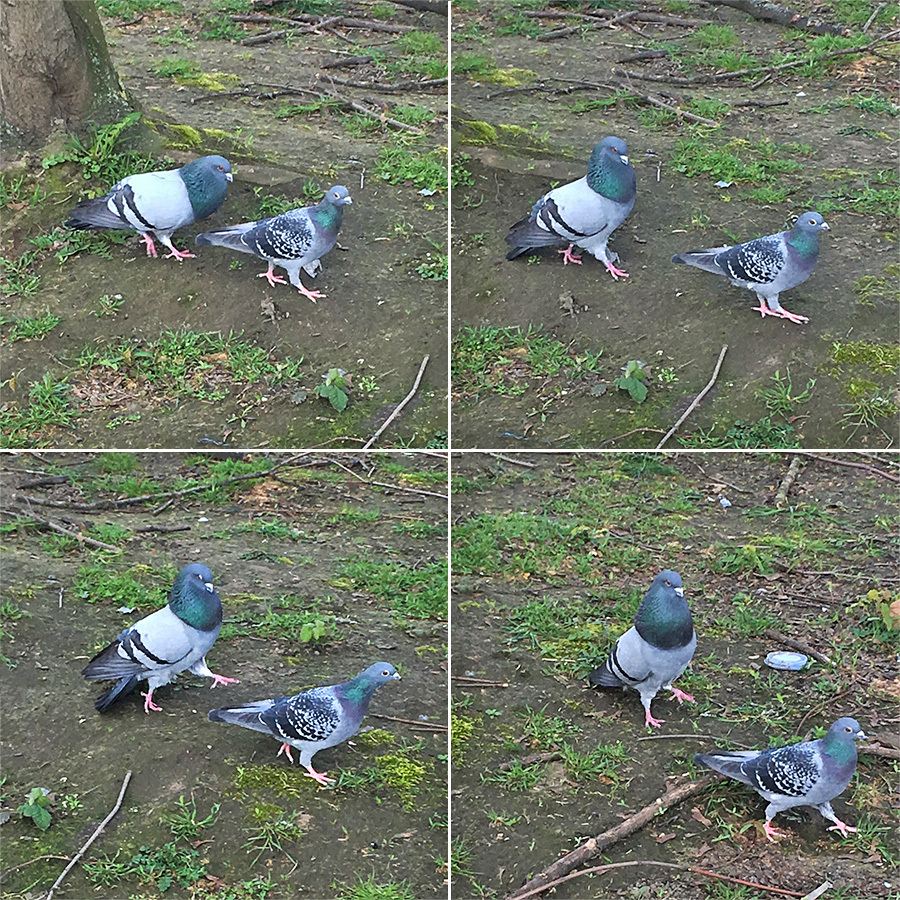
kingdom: Animalia
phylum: Chordata
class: Aves
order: Columbiformes
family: Columbidae
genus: Columba
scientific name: Columba livia
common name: Rock pigeon
